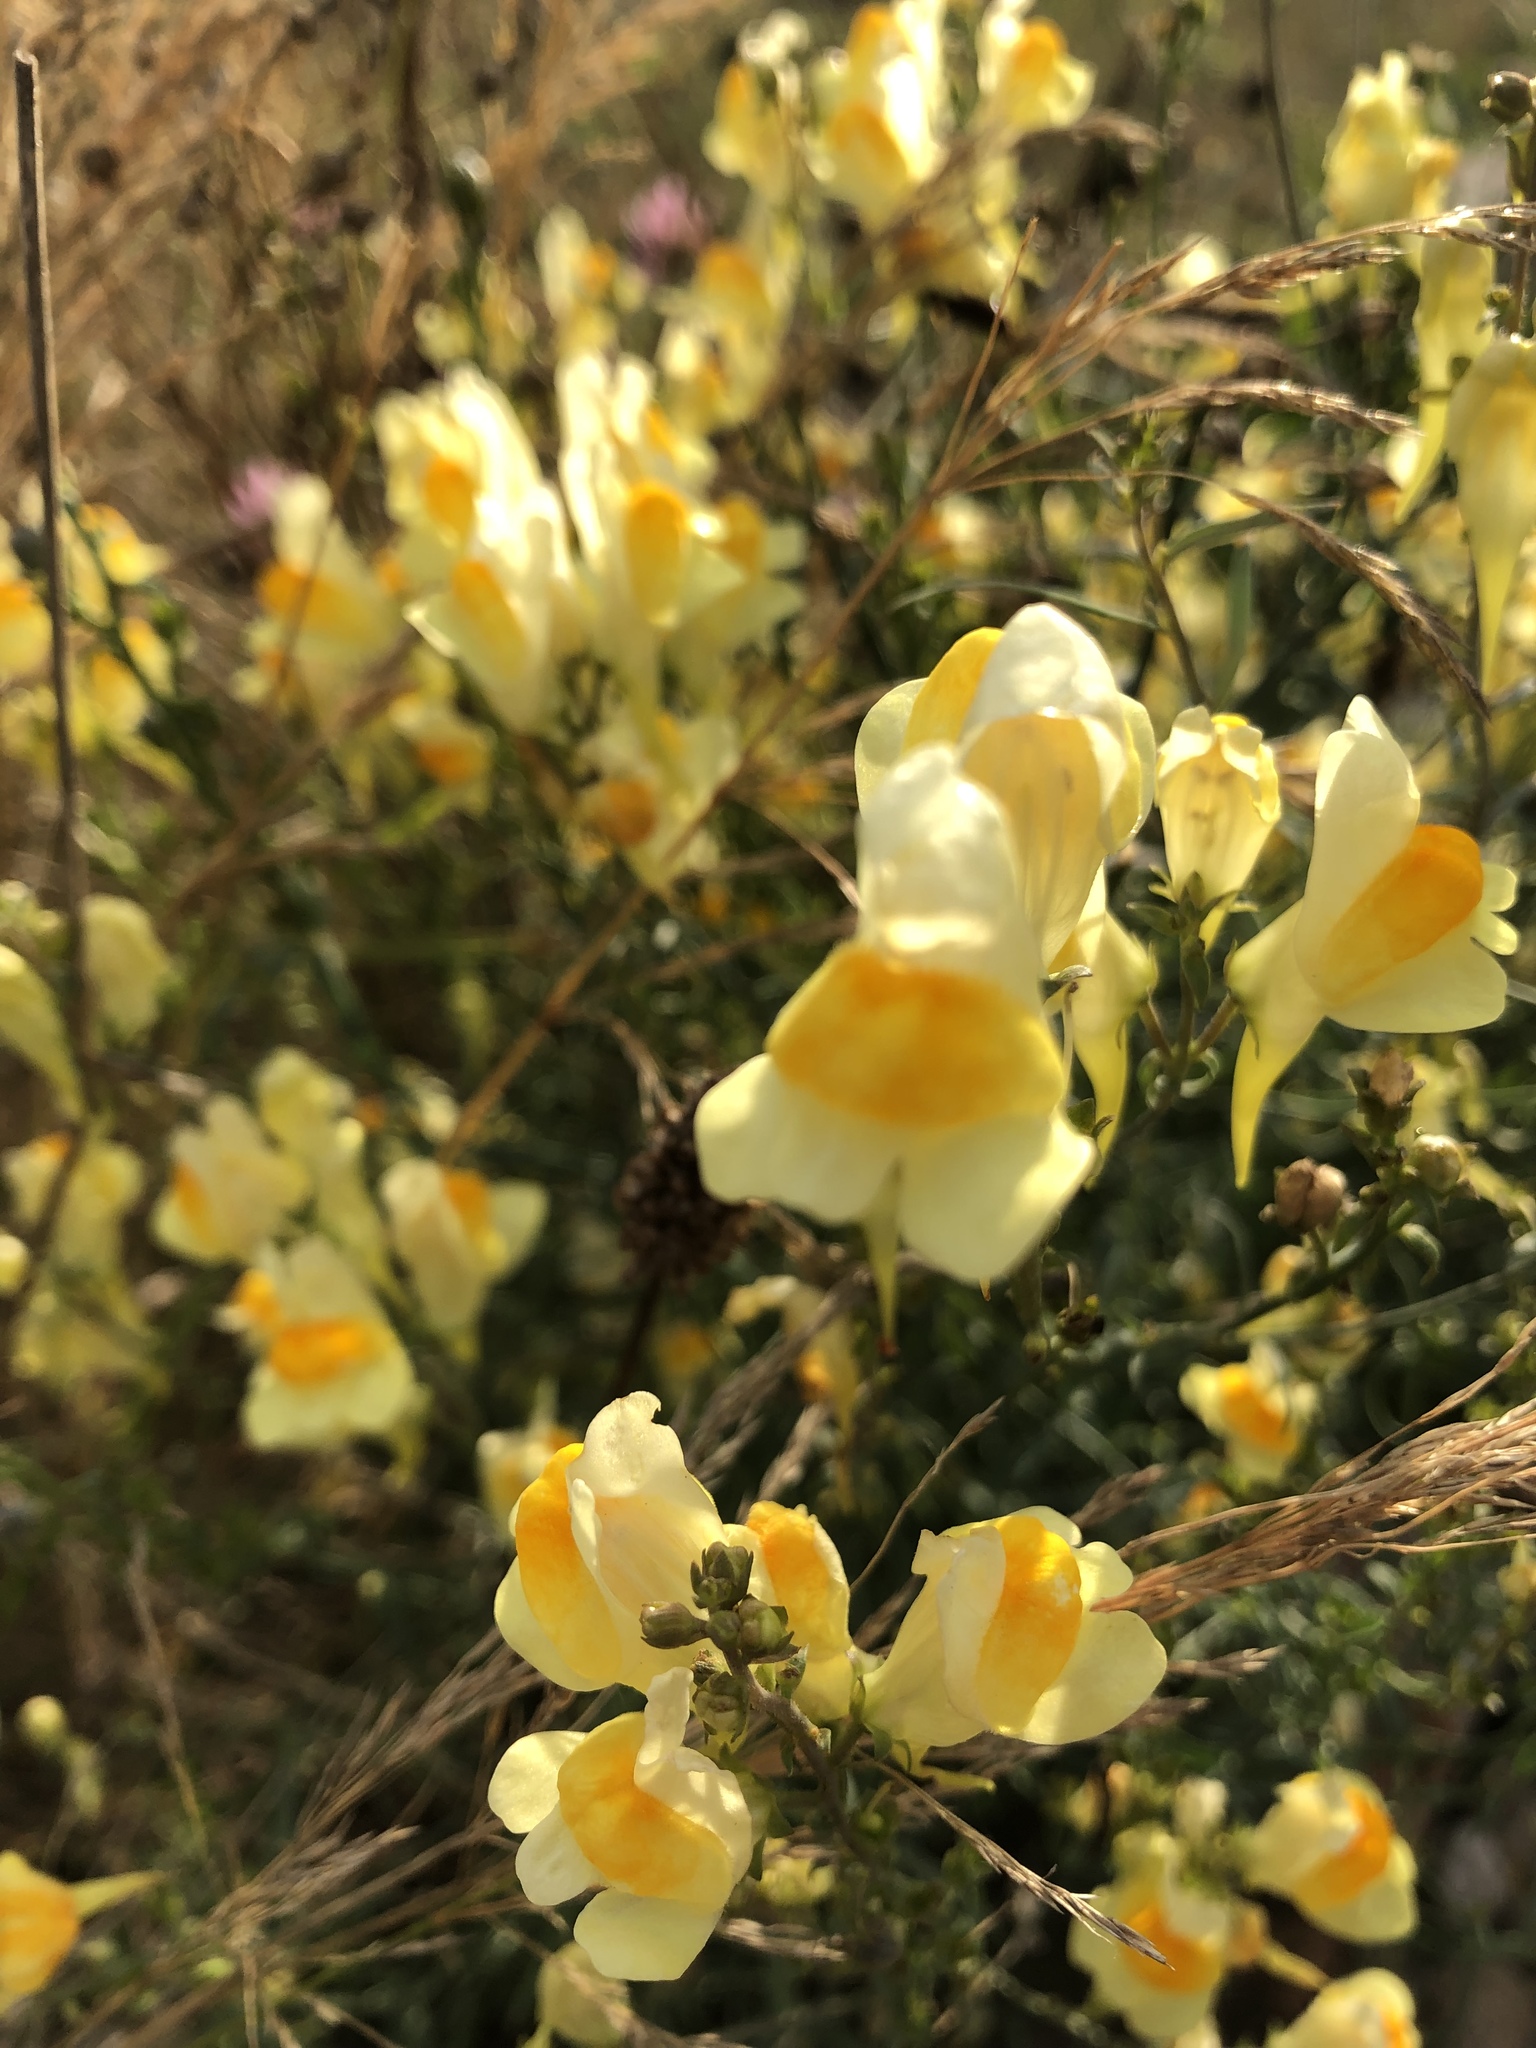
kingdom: Plantae
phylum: Tracheophyta
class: Magnoliopsida
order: Lamiales
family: Plantaginaceae
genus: Linaria
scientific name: Linaria vulgaris
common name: Butter and eggs
